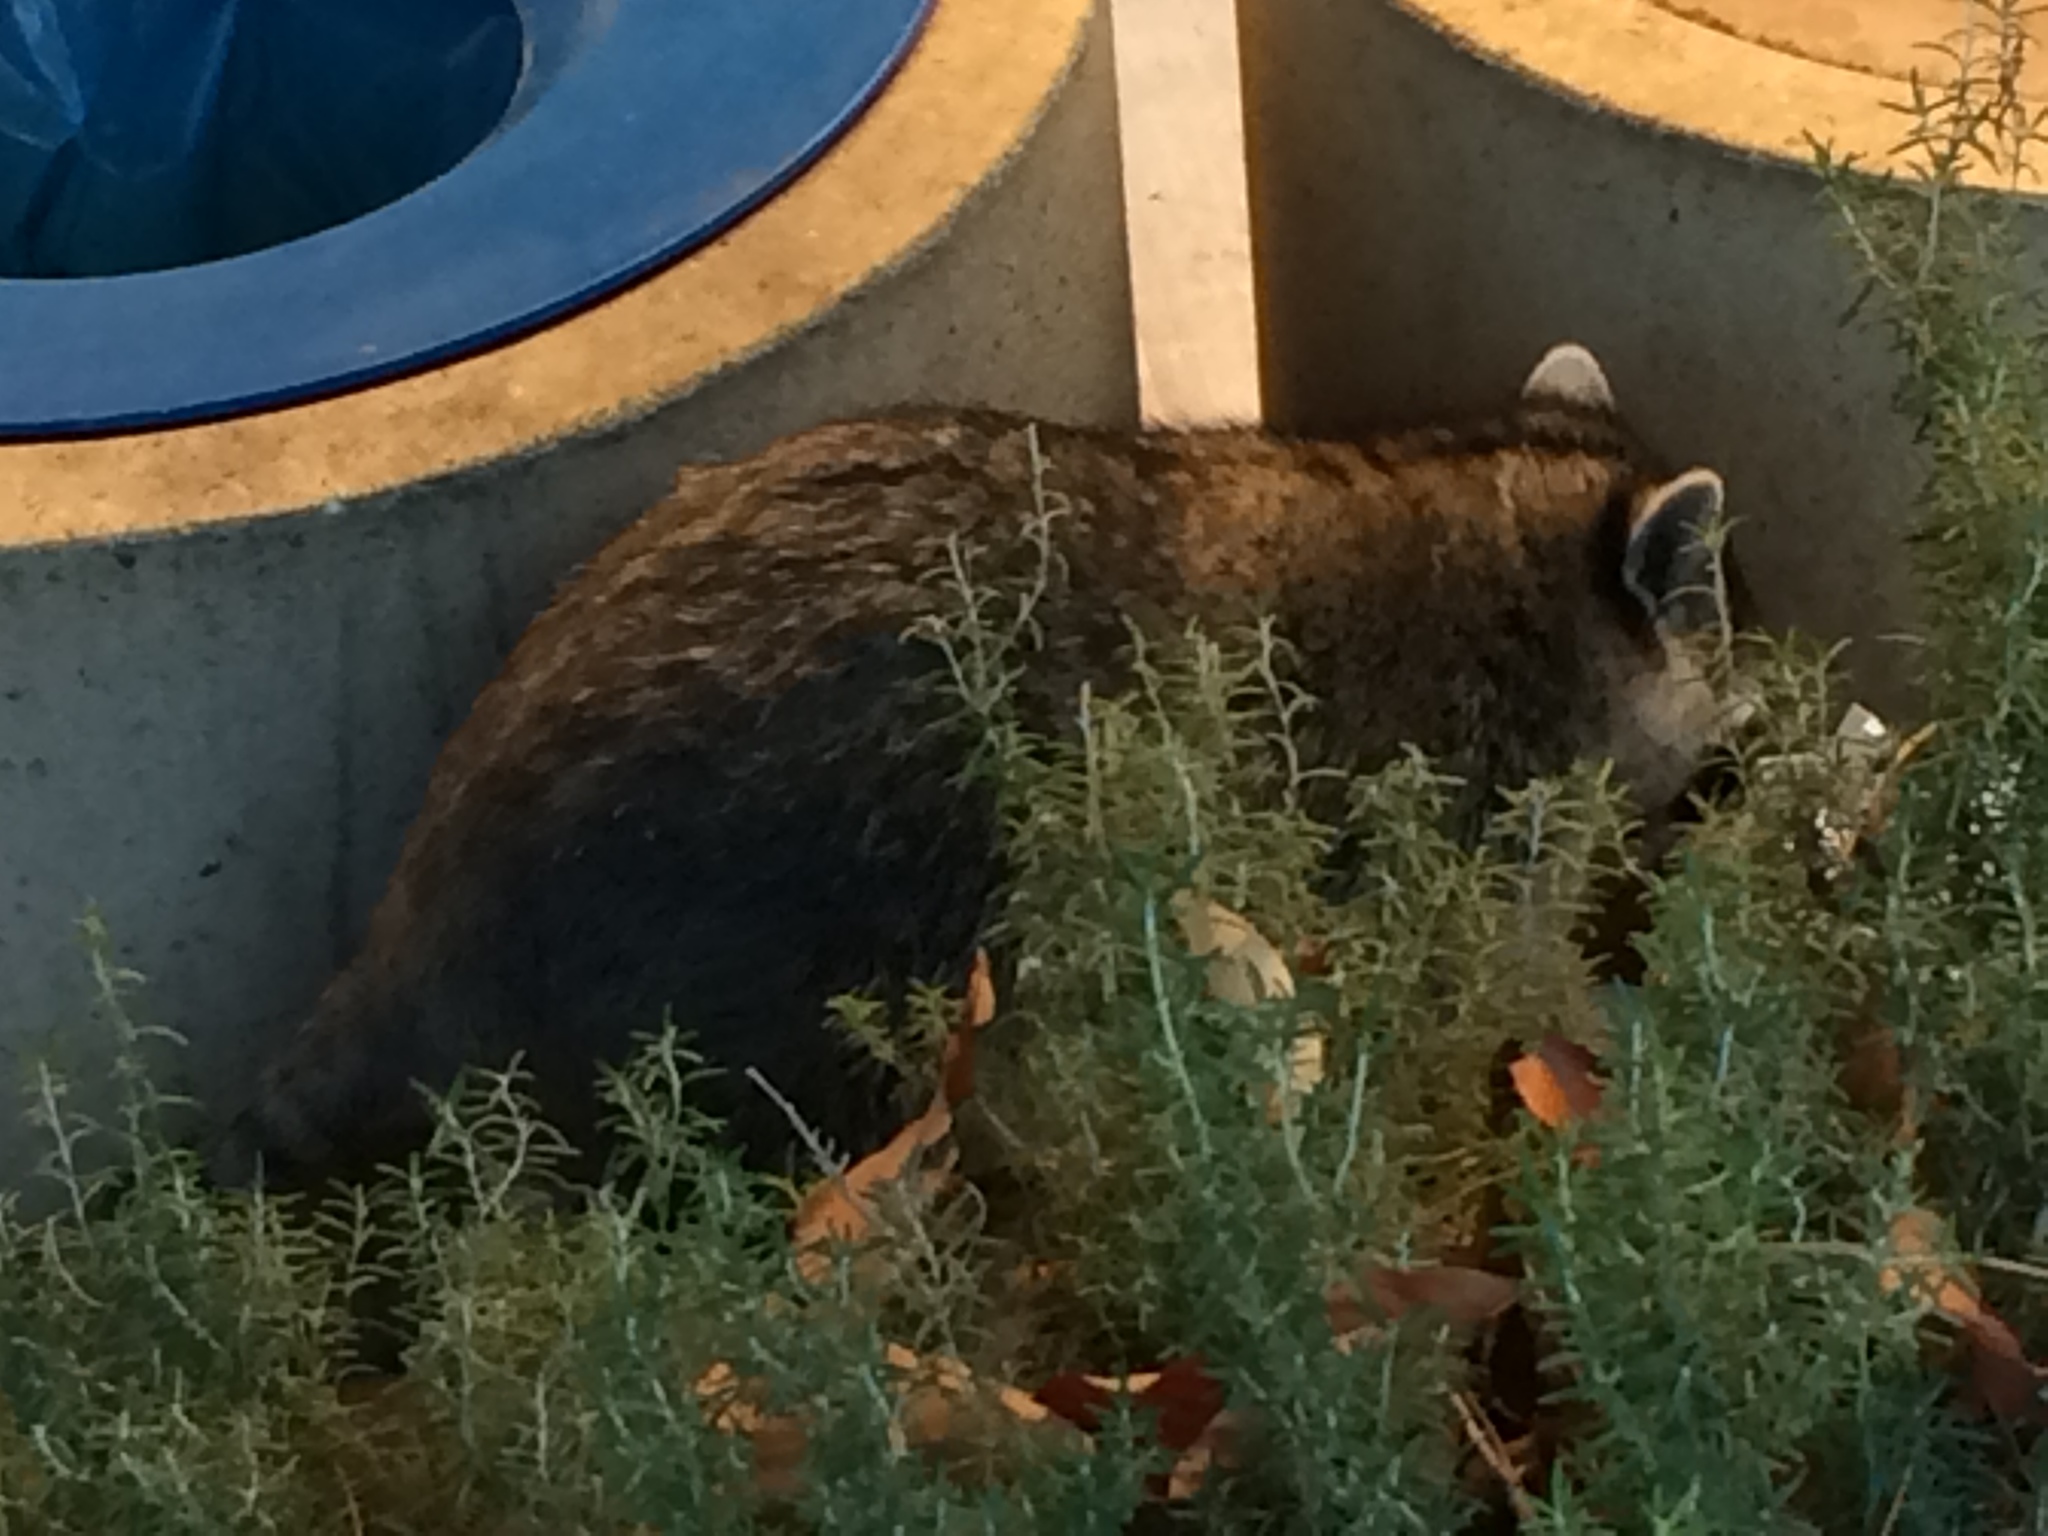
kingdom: Animalia
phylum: Chordata
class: Mammalia
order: Carnivora
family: Procyonidae
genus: Procyon
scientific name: Procyon lotor
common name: Raccoon
